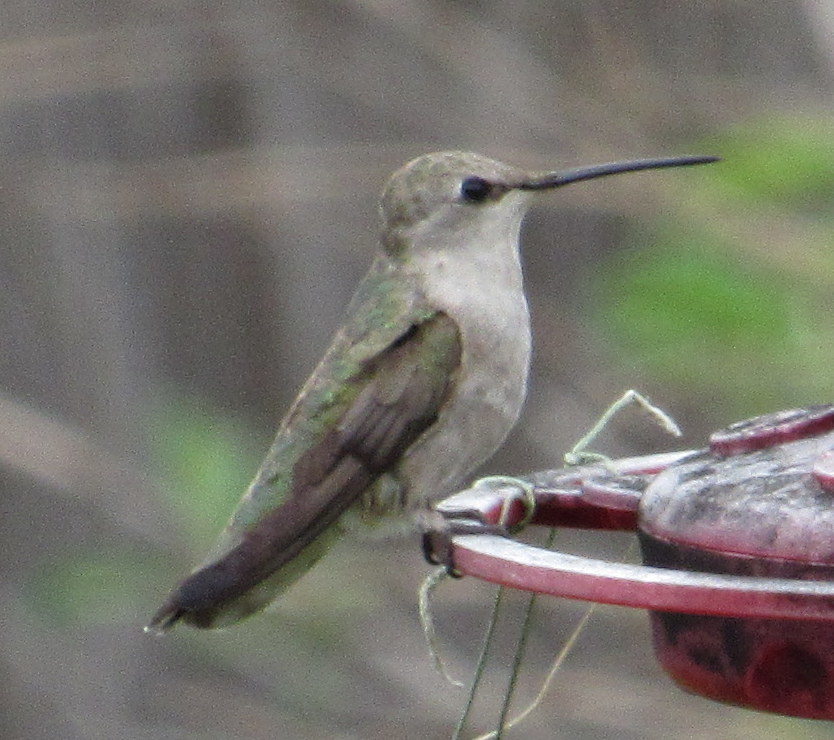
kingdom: Animalia
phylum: Chordata
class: Aves
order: Apodiformes
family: Trochilidae
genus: Archilochus
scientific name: Archilochus alexandri
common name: Black-chinned hummingbird
